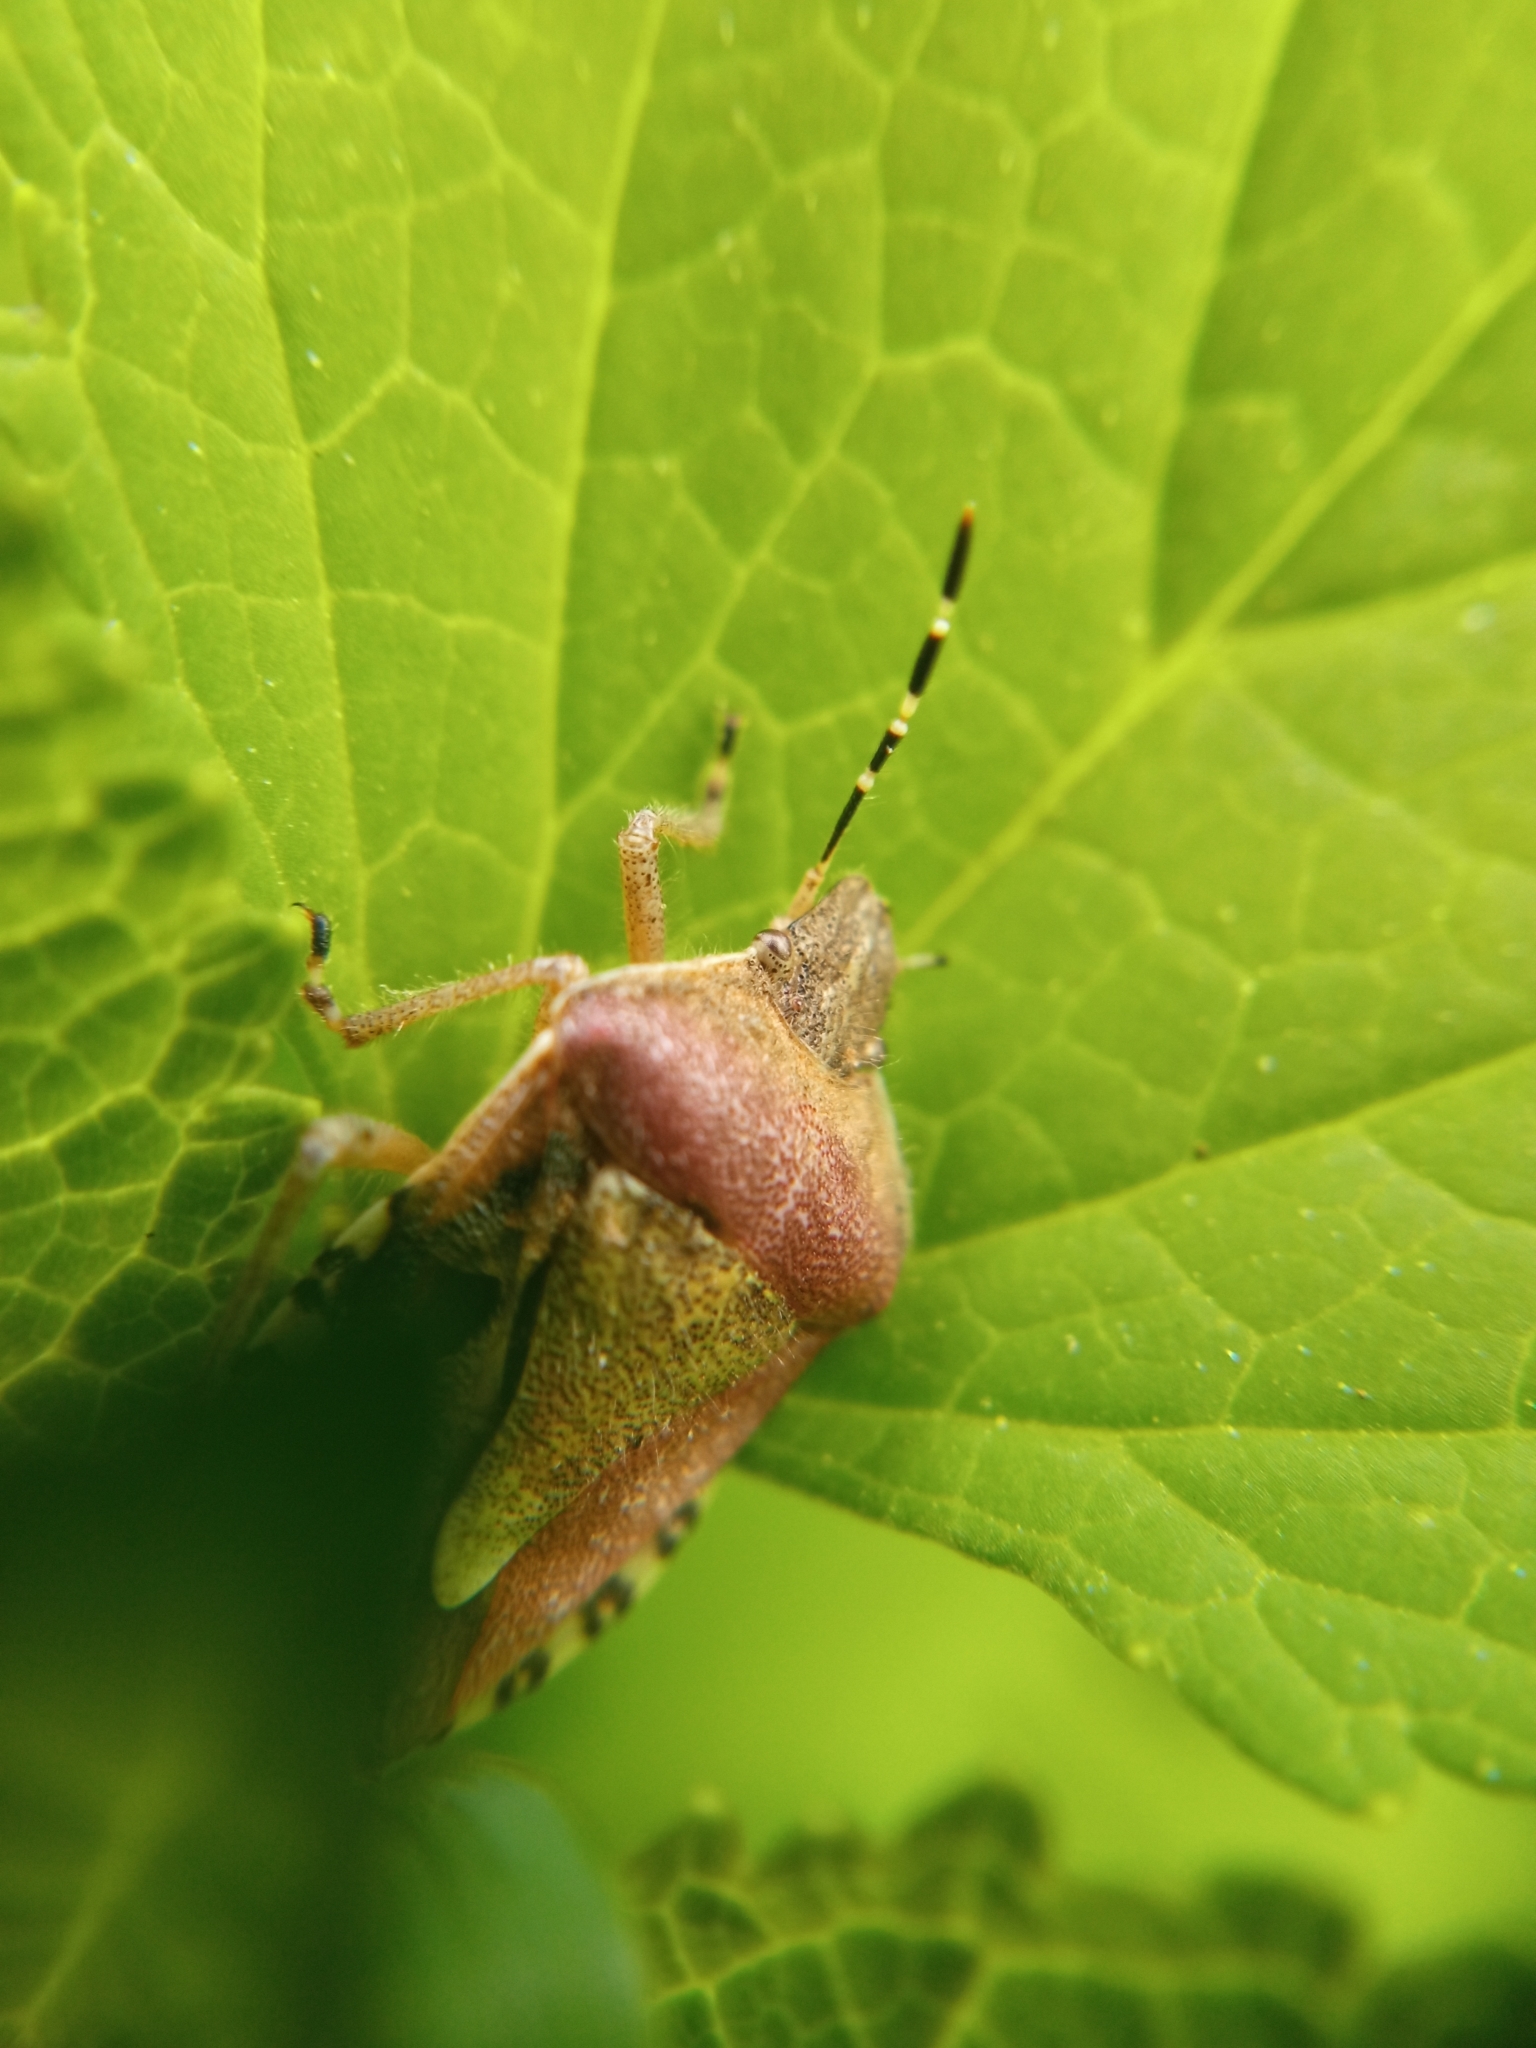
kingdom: Animalia
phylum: Arthropoda
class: Insecta
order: Hemiptera
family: Pentatomidae
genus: Dolycoris
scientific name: Dolycoris baccarum
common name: Sloe bug
